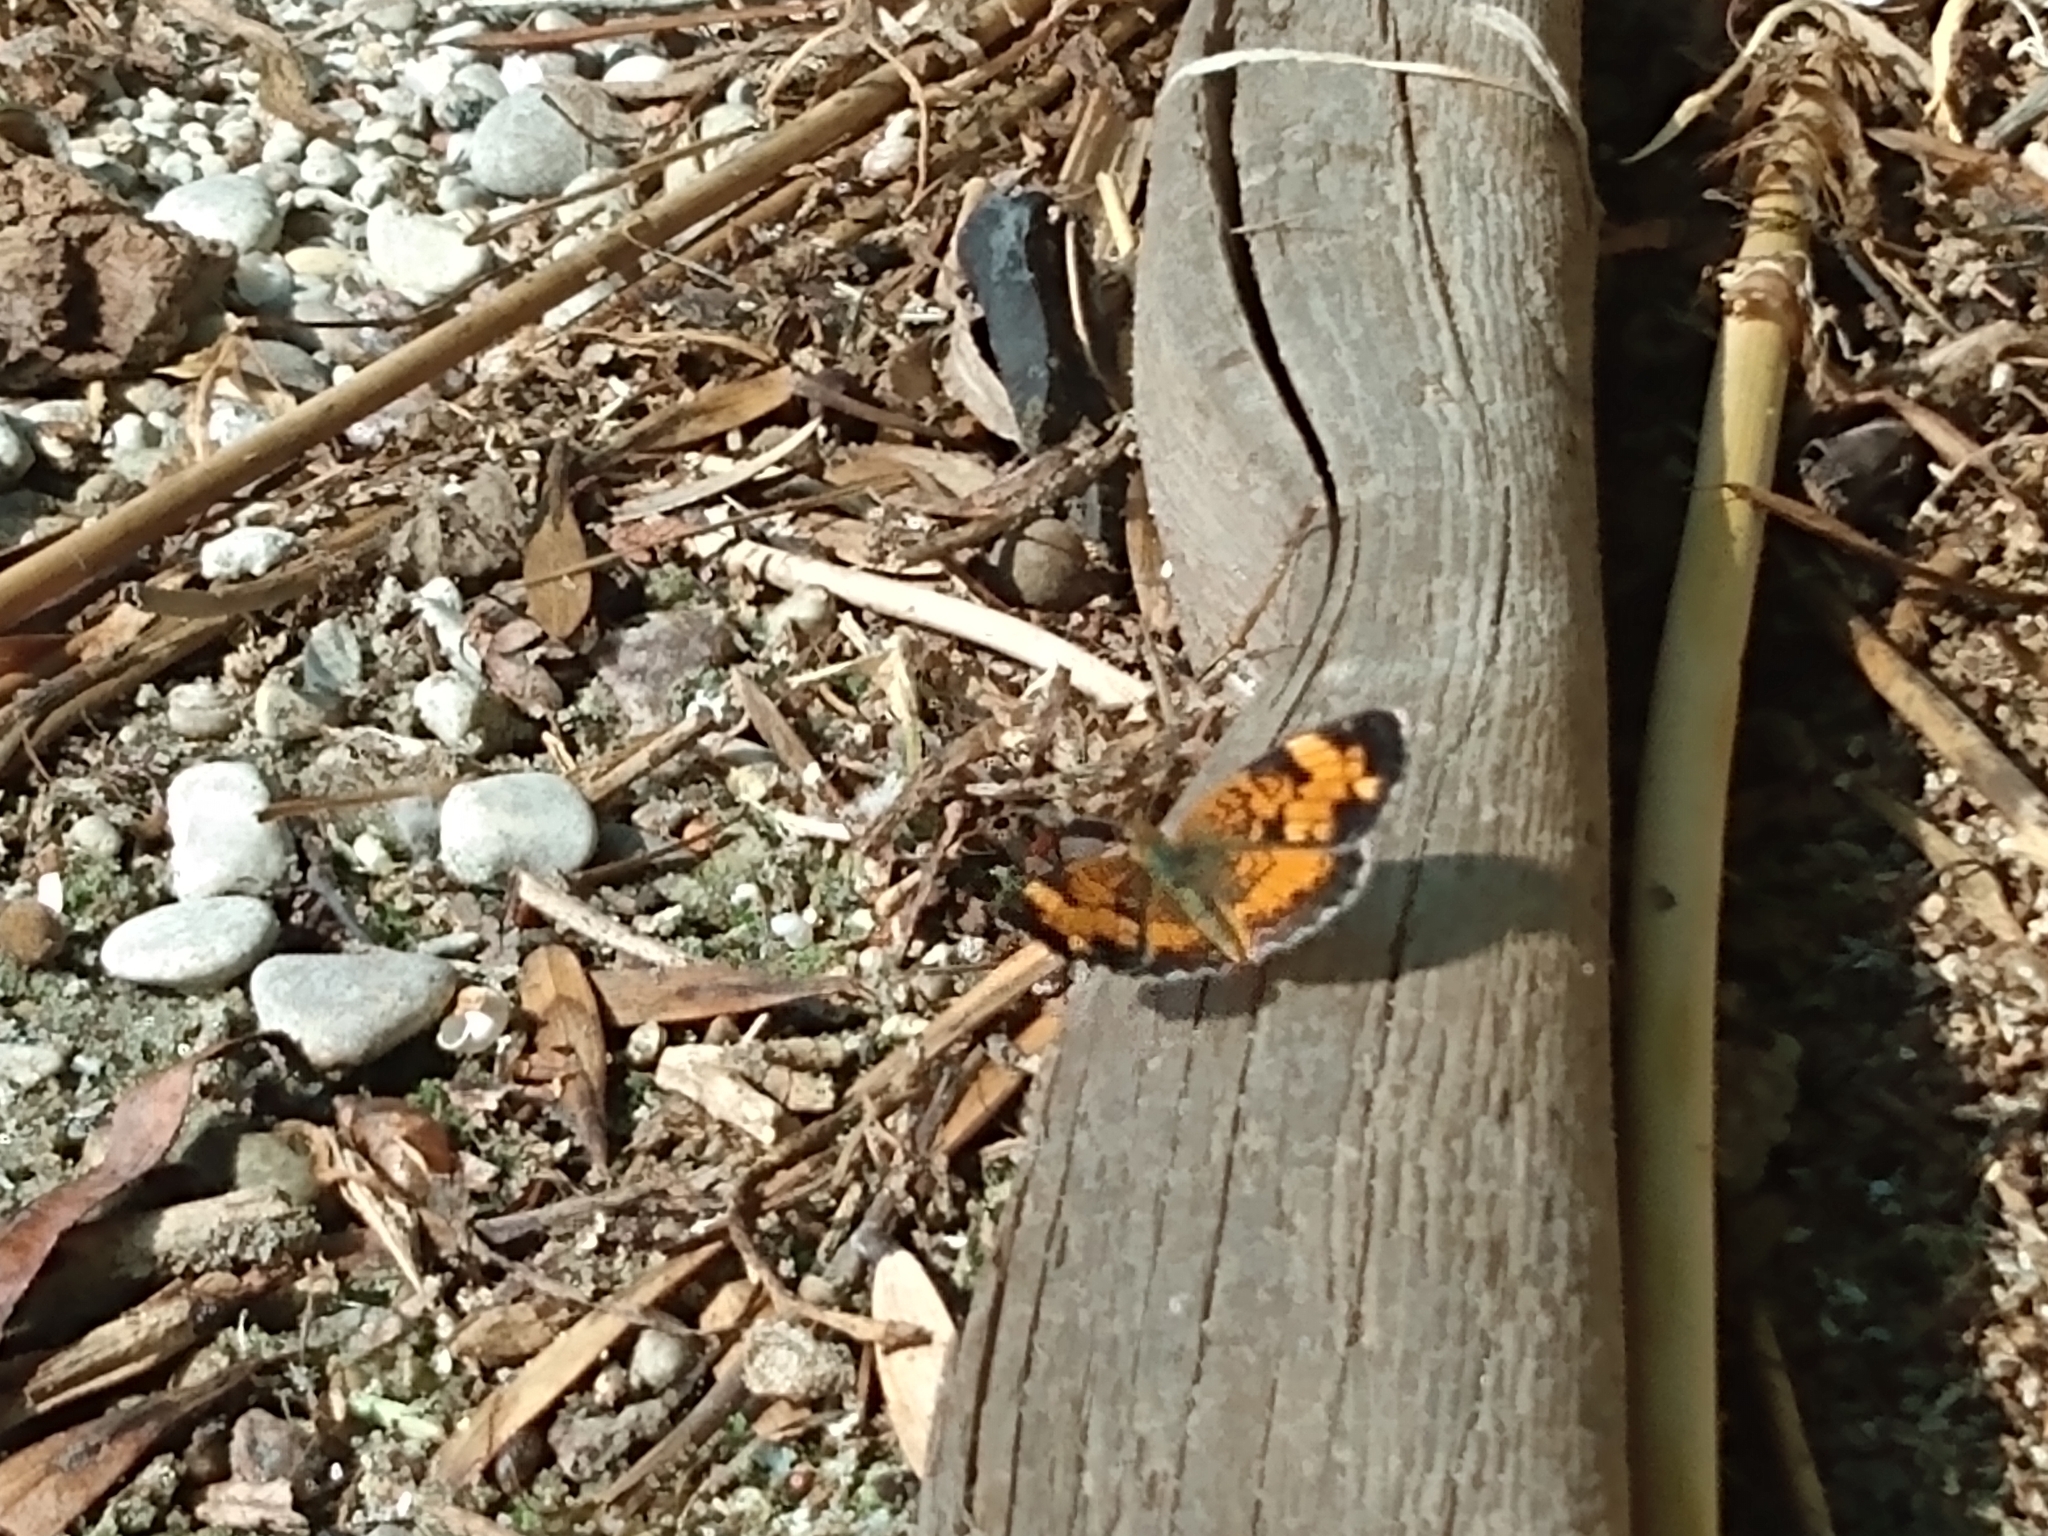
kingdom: Animalia
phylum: Arthropoda
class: Insecta
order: Lepidoptera
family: Nymphalidae
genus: Phyciodes
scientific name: Phyciodes tharos
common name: Pearl crescent
